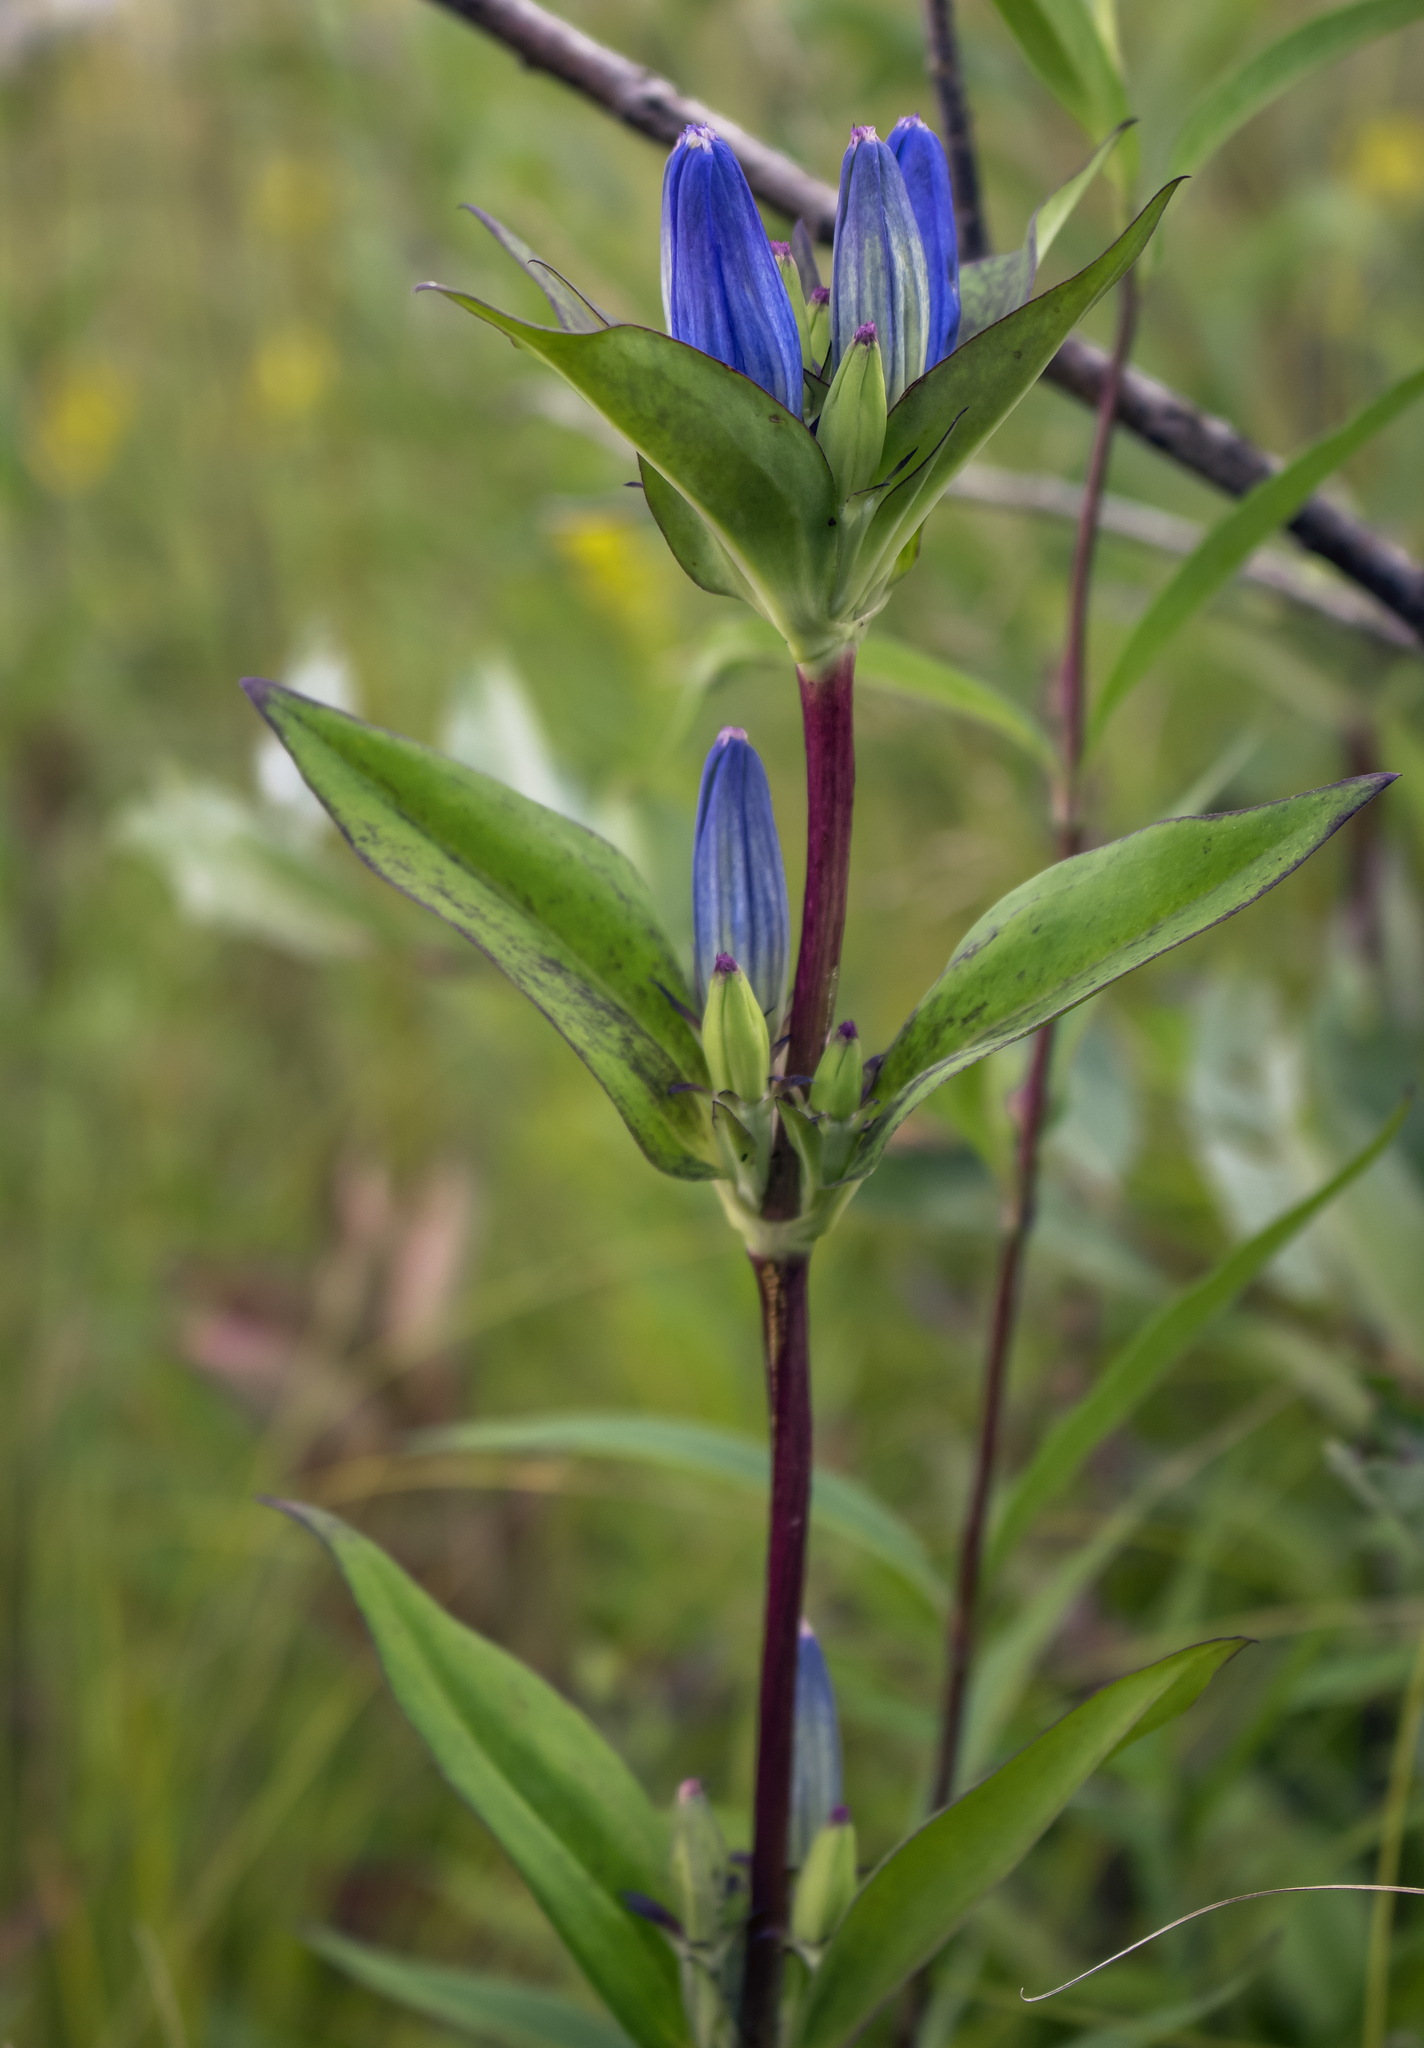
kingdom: Plantae
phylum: Tracheophyta
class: Magnoliopsida
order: Gentianales
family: Gentianaceae
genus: Gentiana
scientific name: Gentiana andrewsii
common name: Bottle gentian
